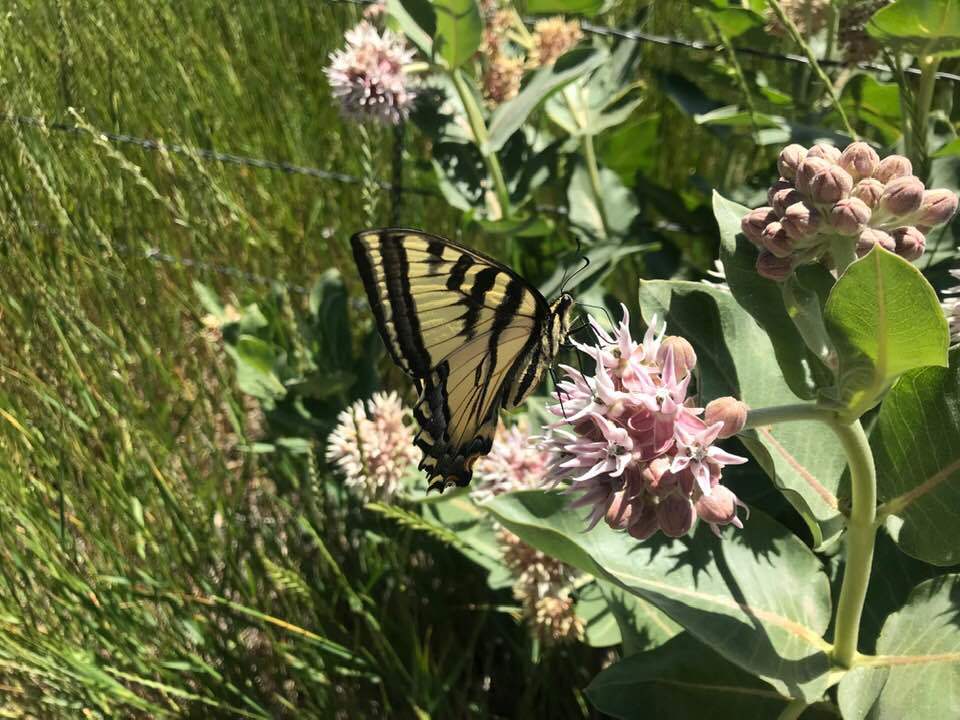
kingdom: Animalia
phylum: Arthropoda
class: Insecta
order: Lepidoptera
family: Papilionidae
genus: Papilio
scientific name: Papilio rutulus
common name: Western tiger swallowtail
